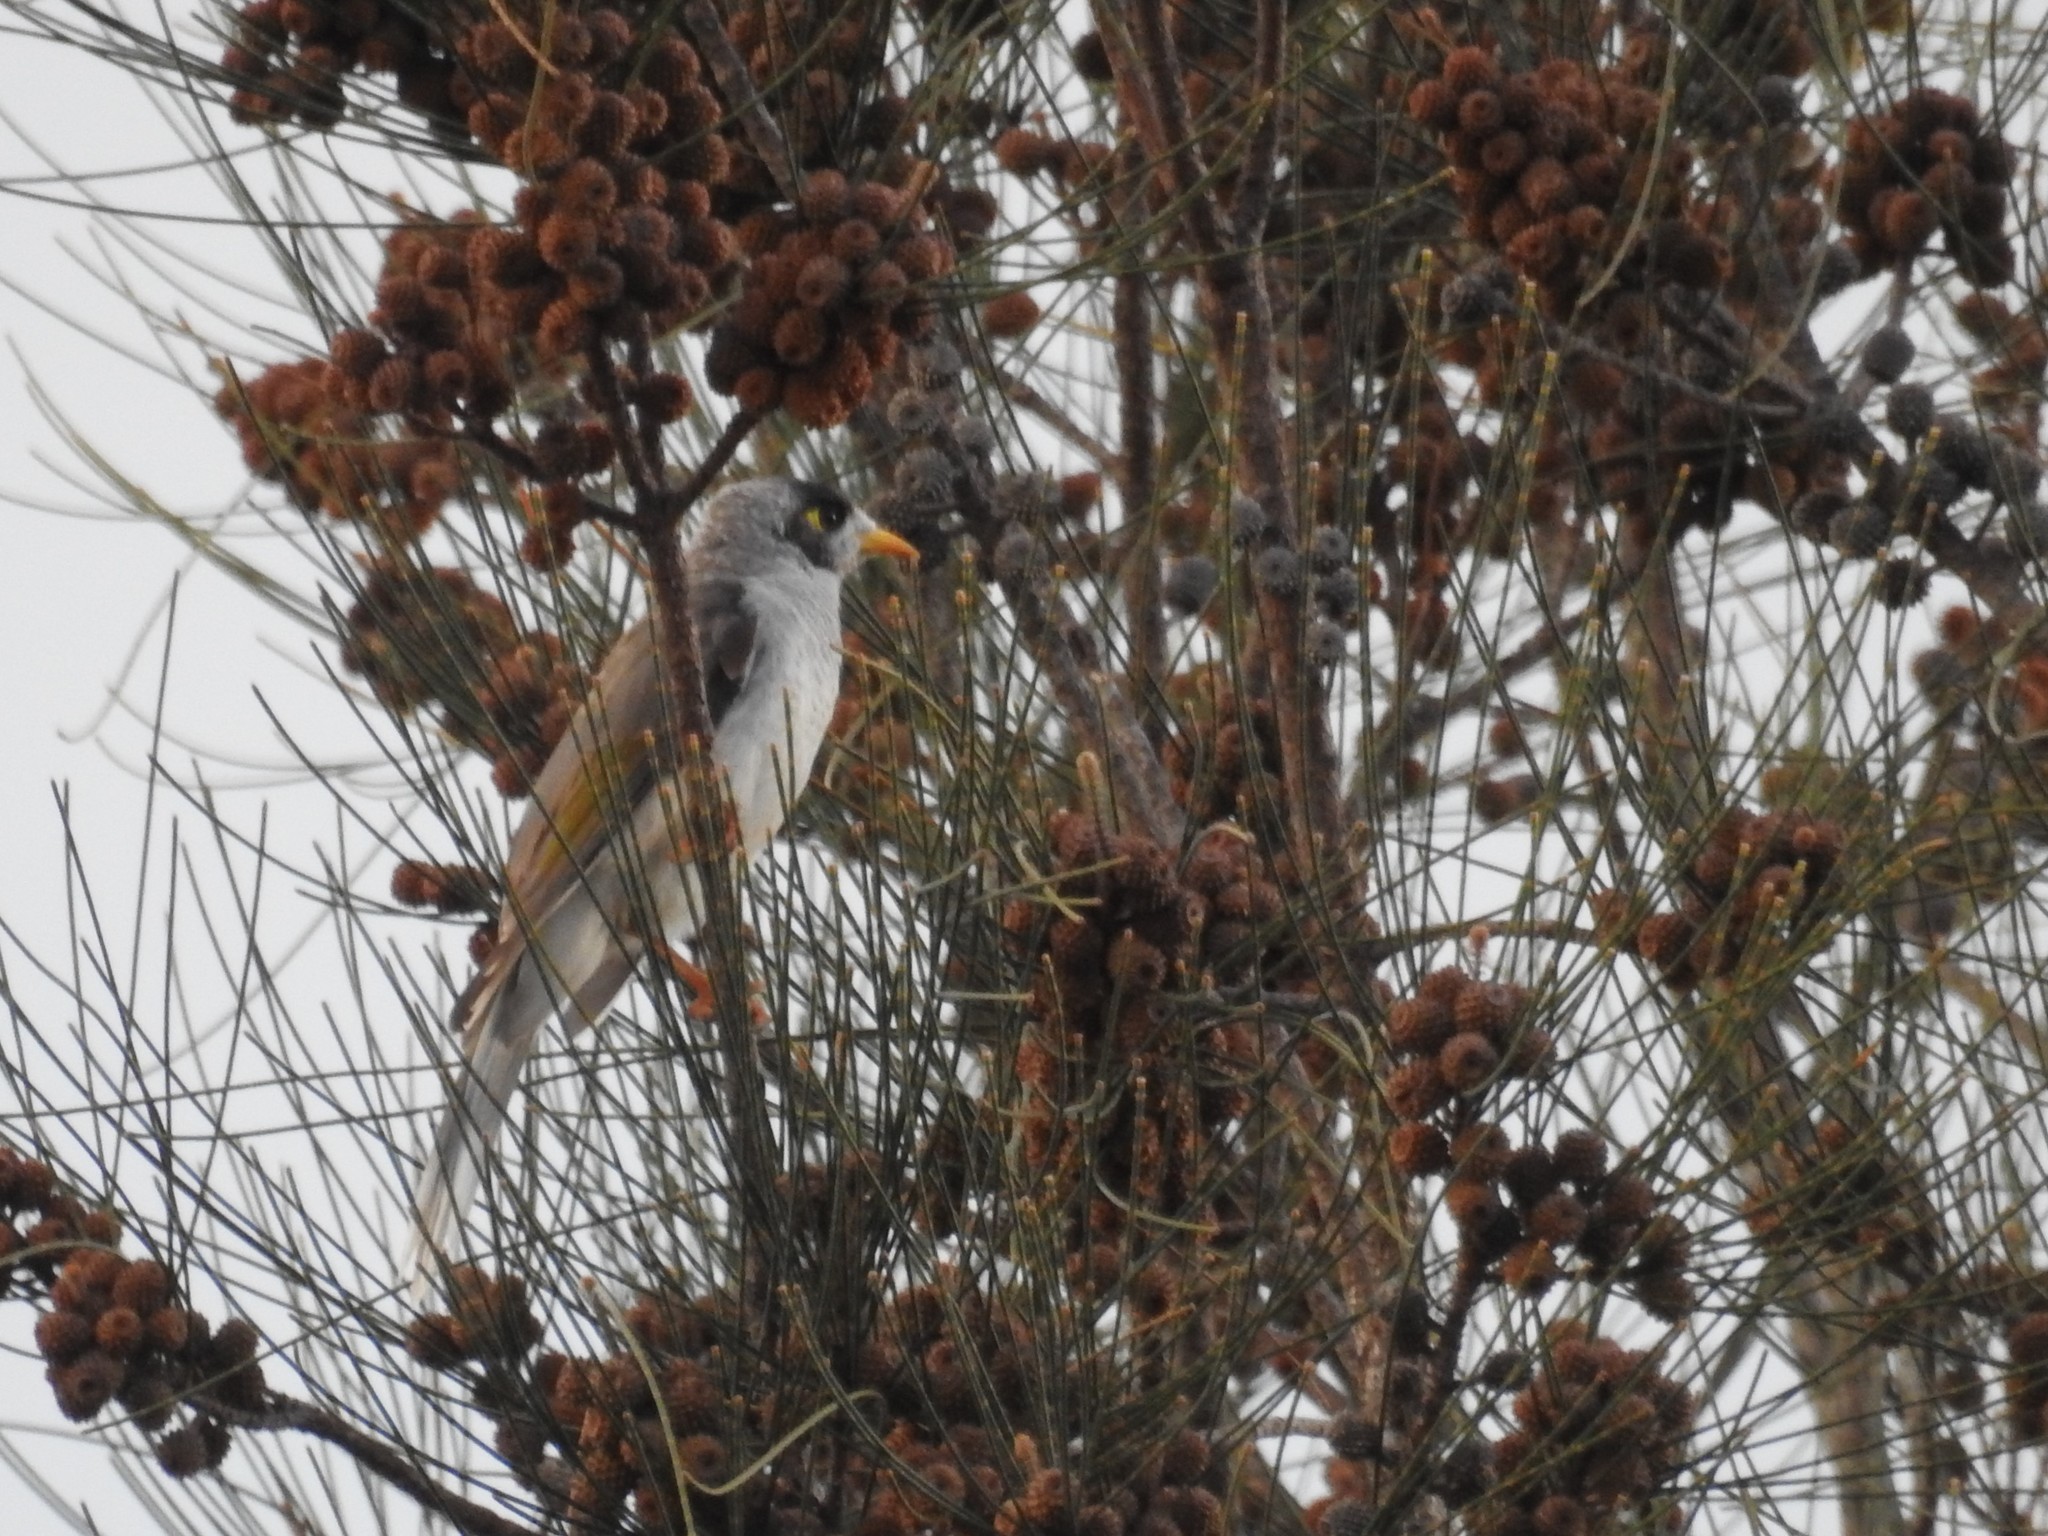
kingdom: Animalia
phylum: Chordata
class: Aves
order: Passeriformes
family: Meliphagidae
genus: Manorina
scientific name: Manorina melanocephala
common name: Noisy miner
